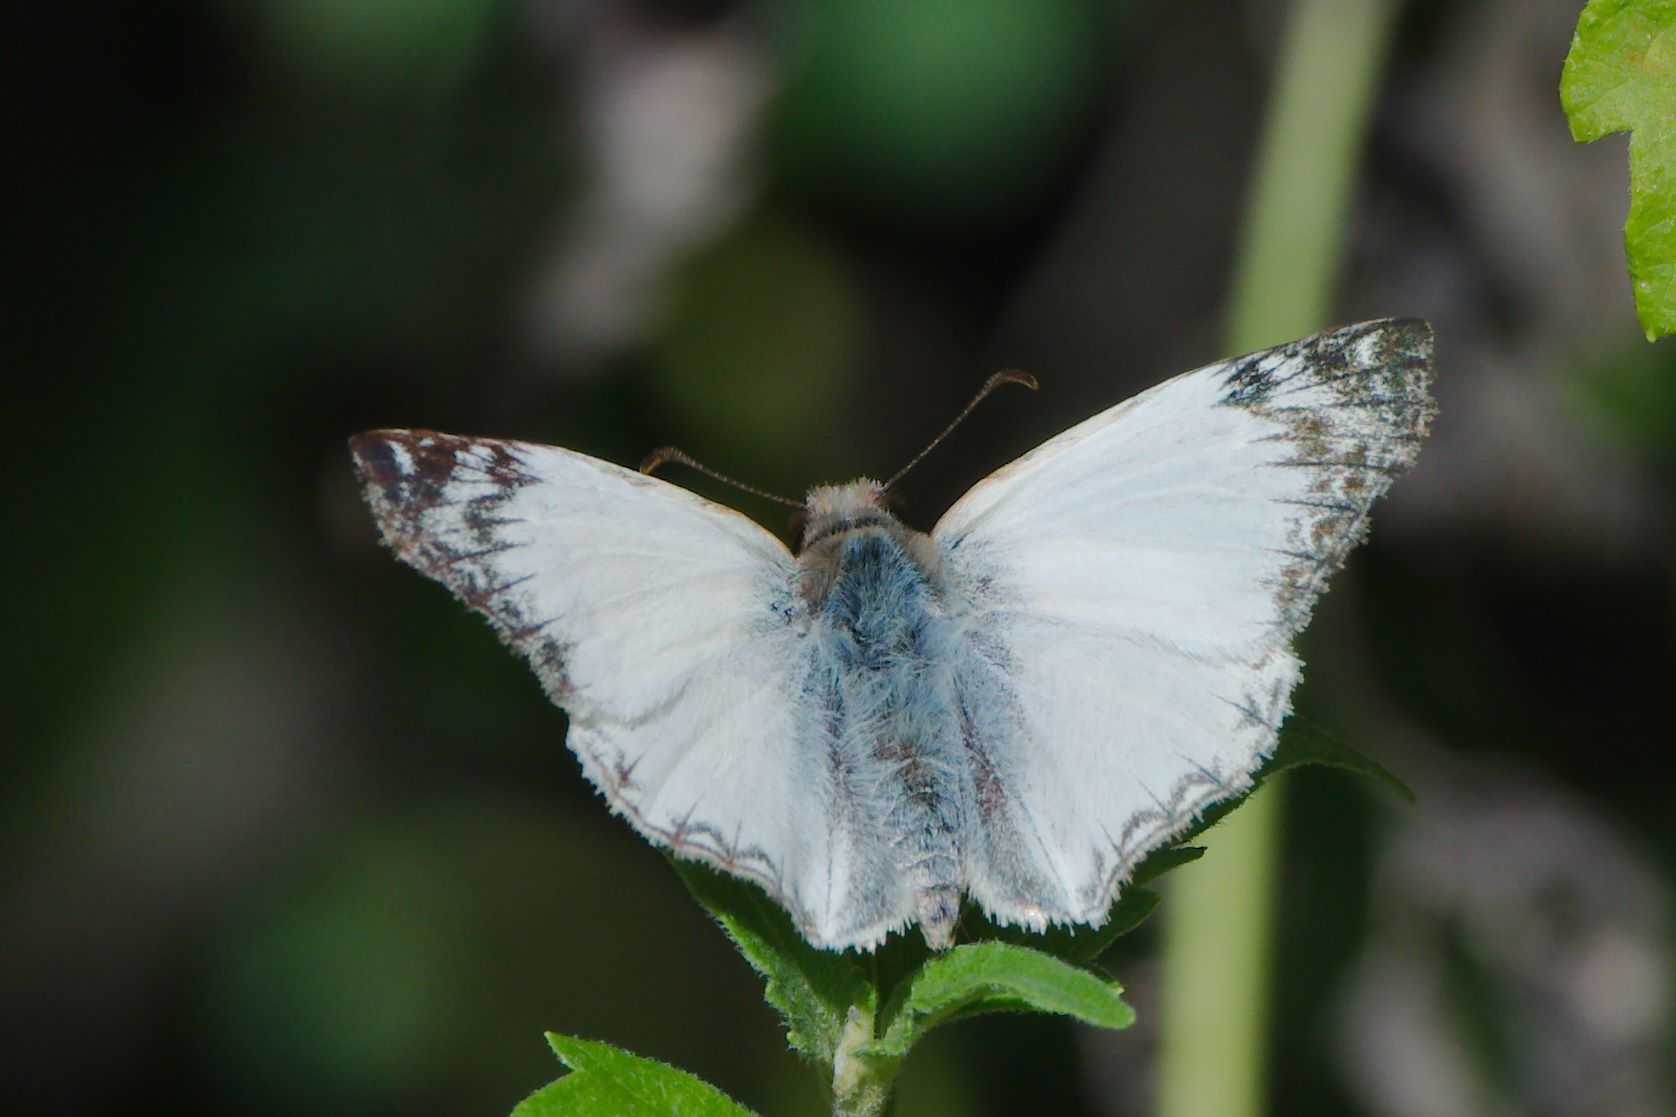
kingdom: Animalia
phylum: Arthropoda
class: Insecta
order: Lepidoptera
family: Hesperiidae
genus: Heliopetes
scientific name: Heliopetes laviana
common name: Laviana white-skipper
